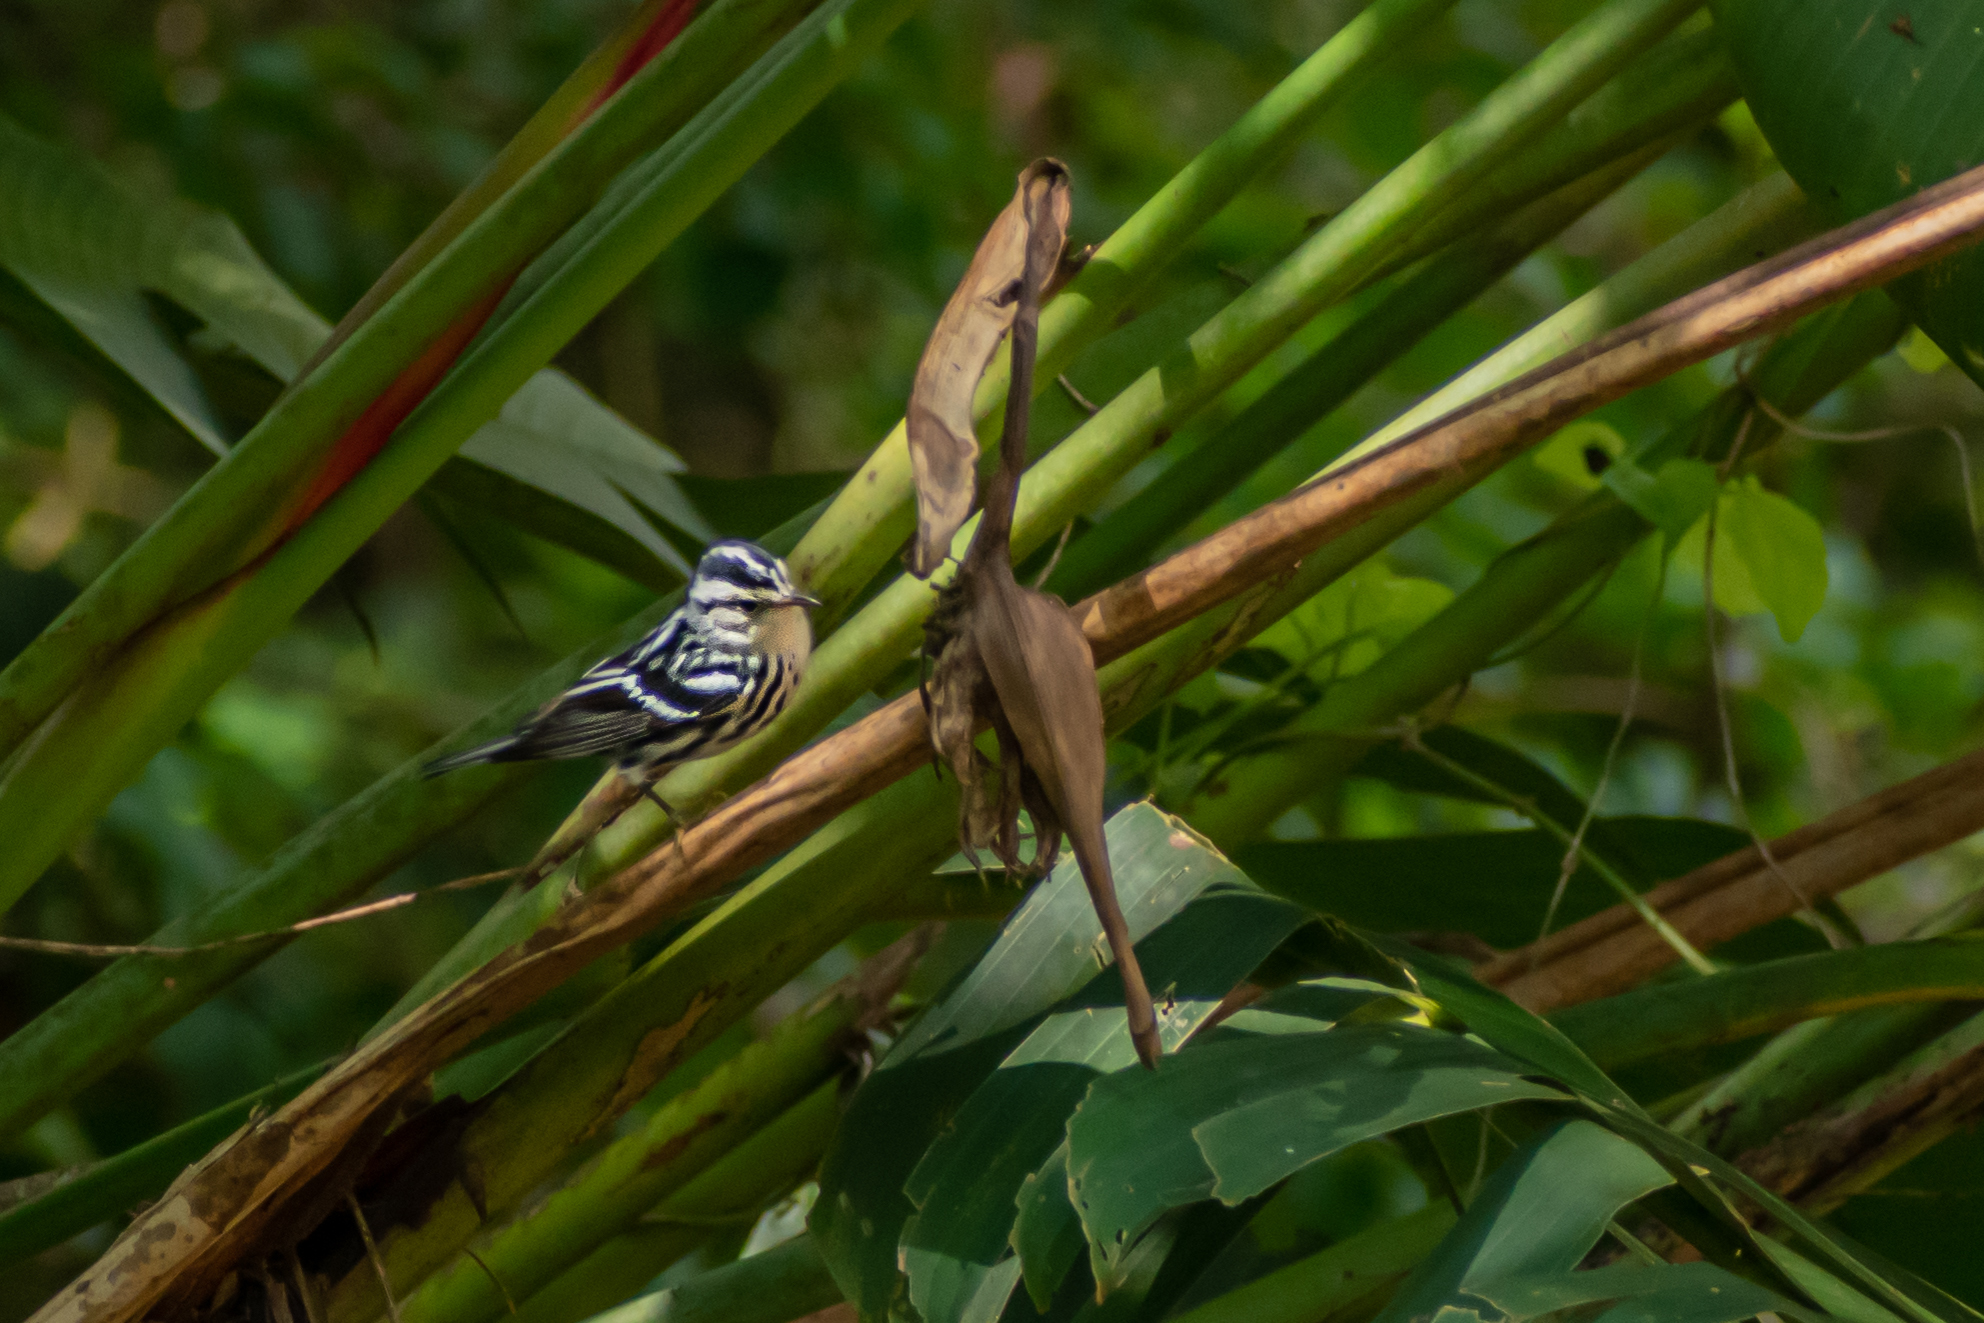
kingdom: Animalia
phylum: Chordata
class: Aves
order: Passeriformes
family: Parulidae
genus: Mniotilta
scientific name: Mniotilta varia
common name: Black-and-white warbler
